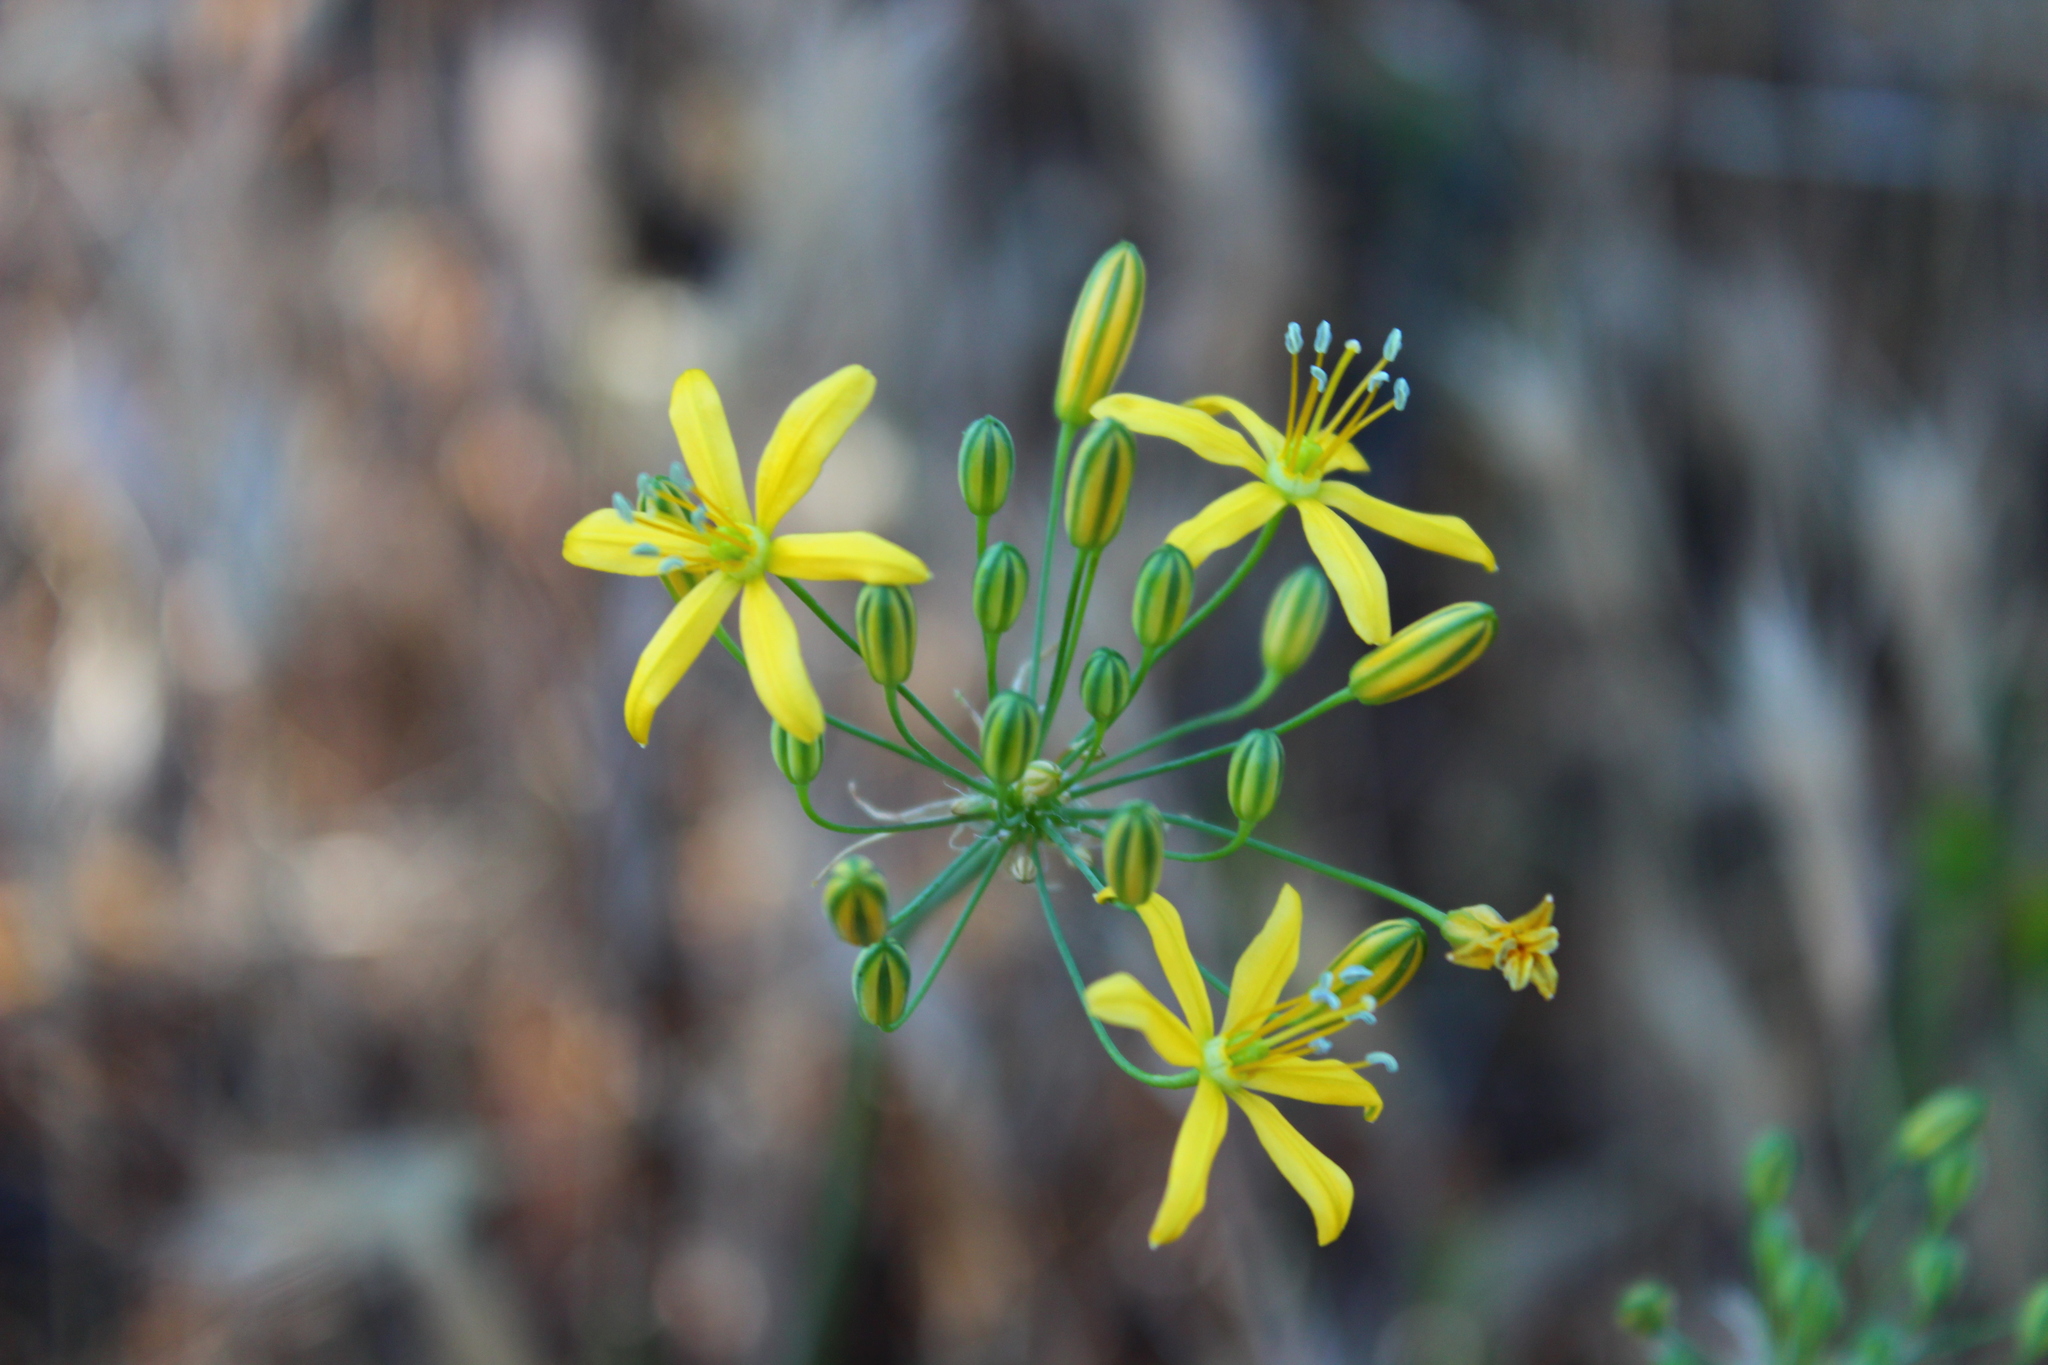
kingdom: Plantae
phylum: Tracheophyta
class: Liliopsida
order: Asparagales
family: Asparagaceae
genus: Bloomeria
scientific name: Bloomeria crocea
